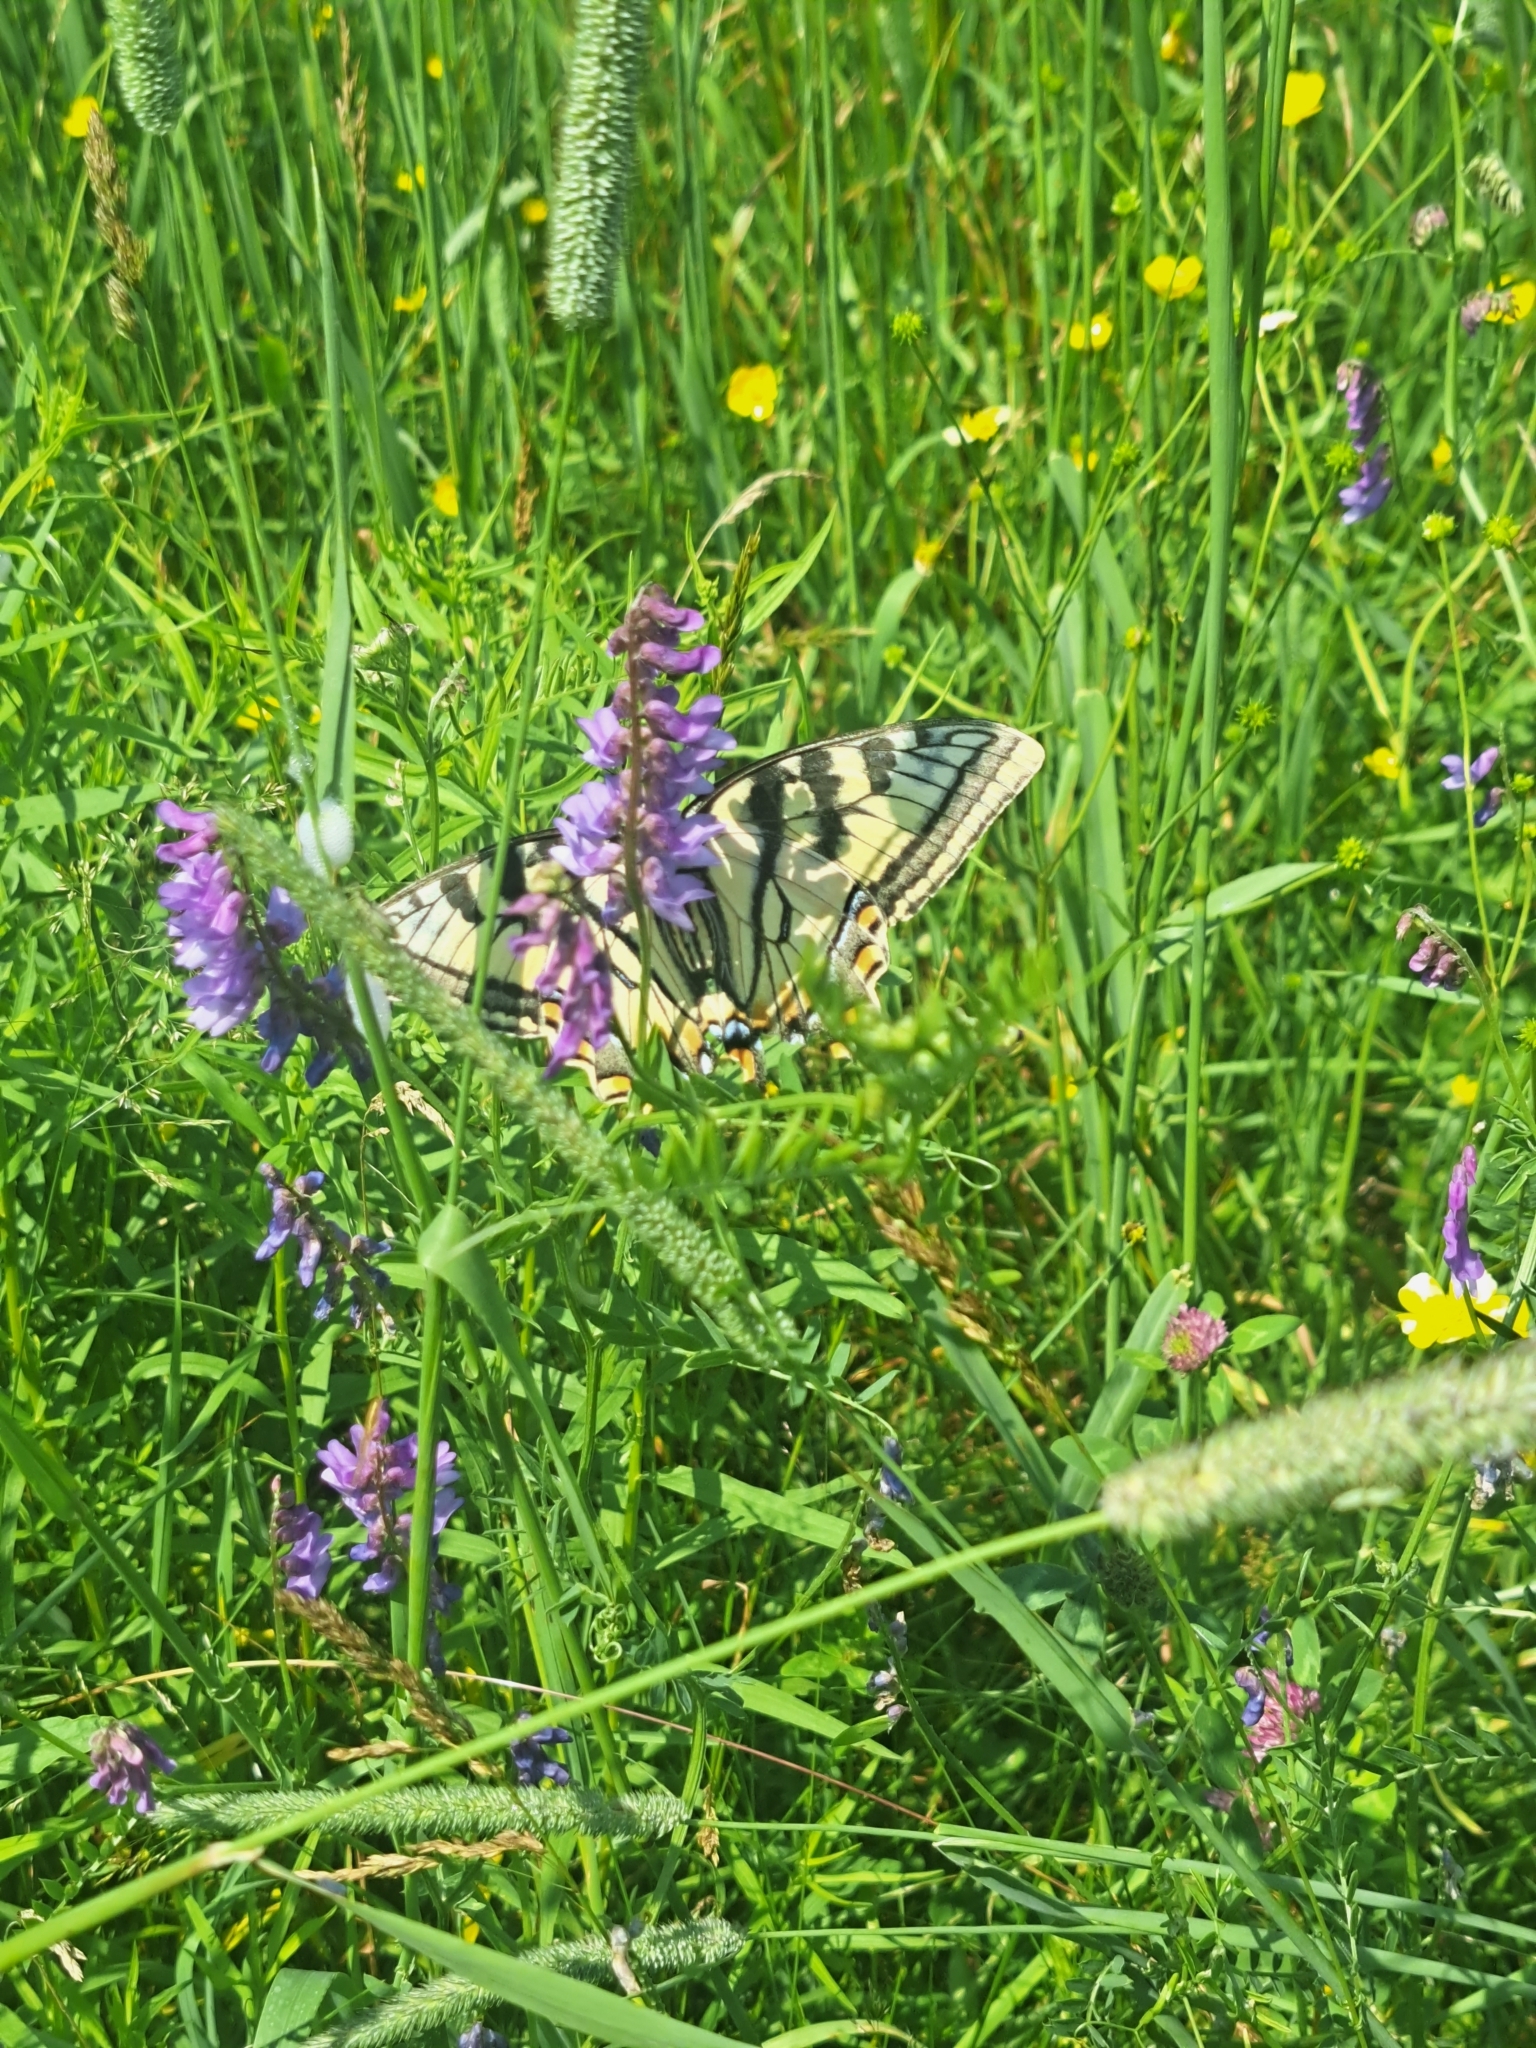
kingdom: Animalia
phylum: Arthropoda
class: Insecta
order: Lepidoptera
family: Papilionidae
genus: Papilio
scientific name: Papilio canadensis
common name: Canadian tiger swallowtail
